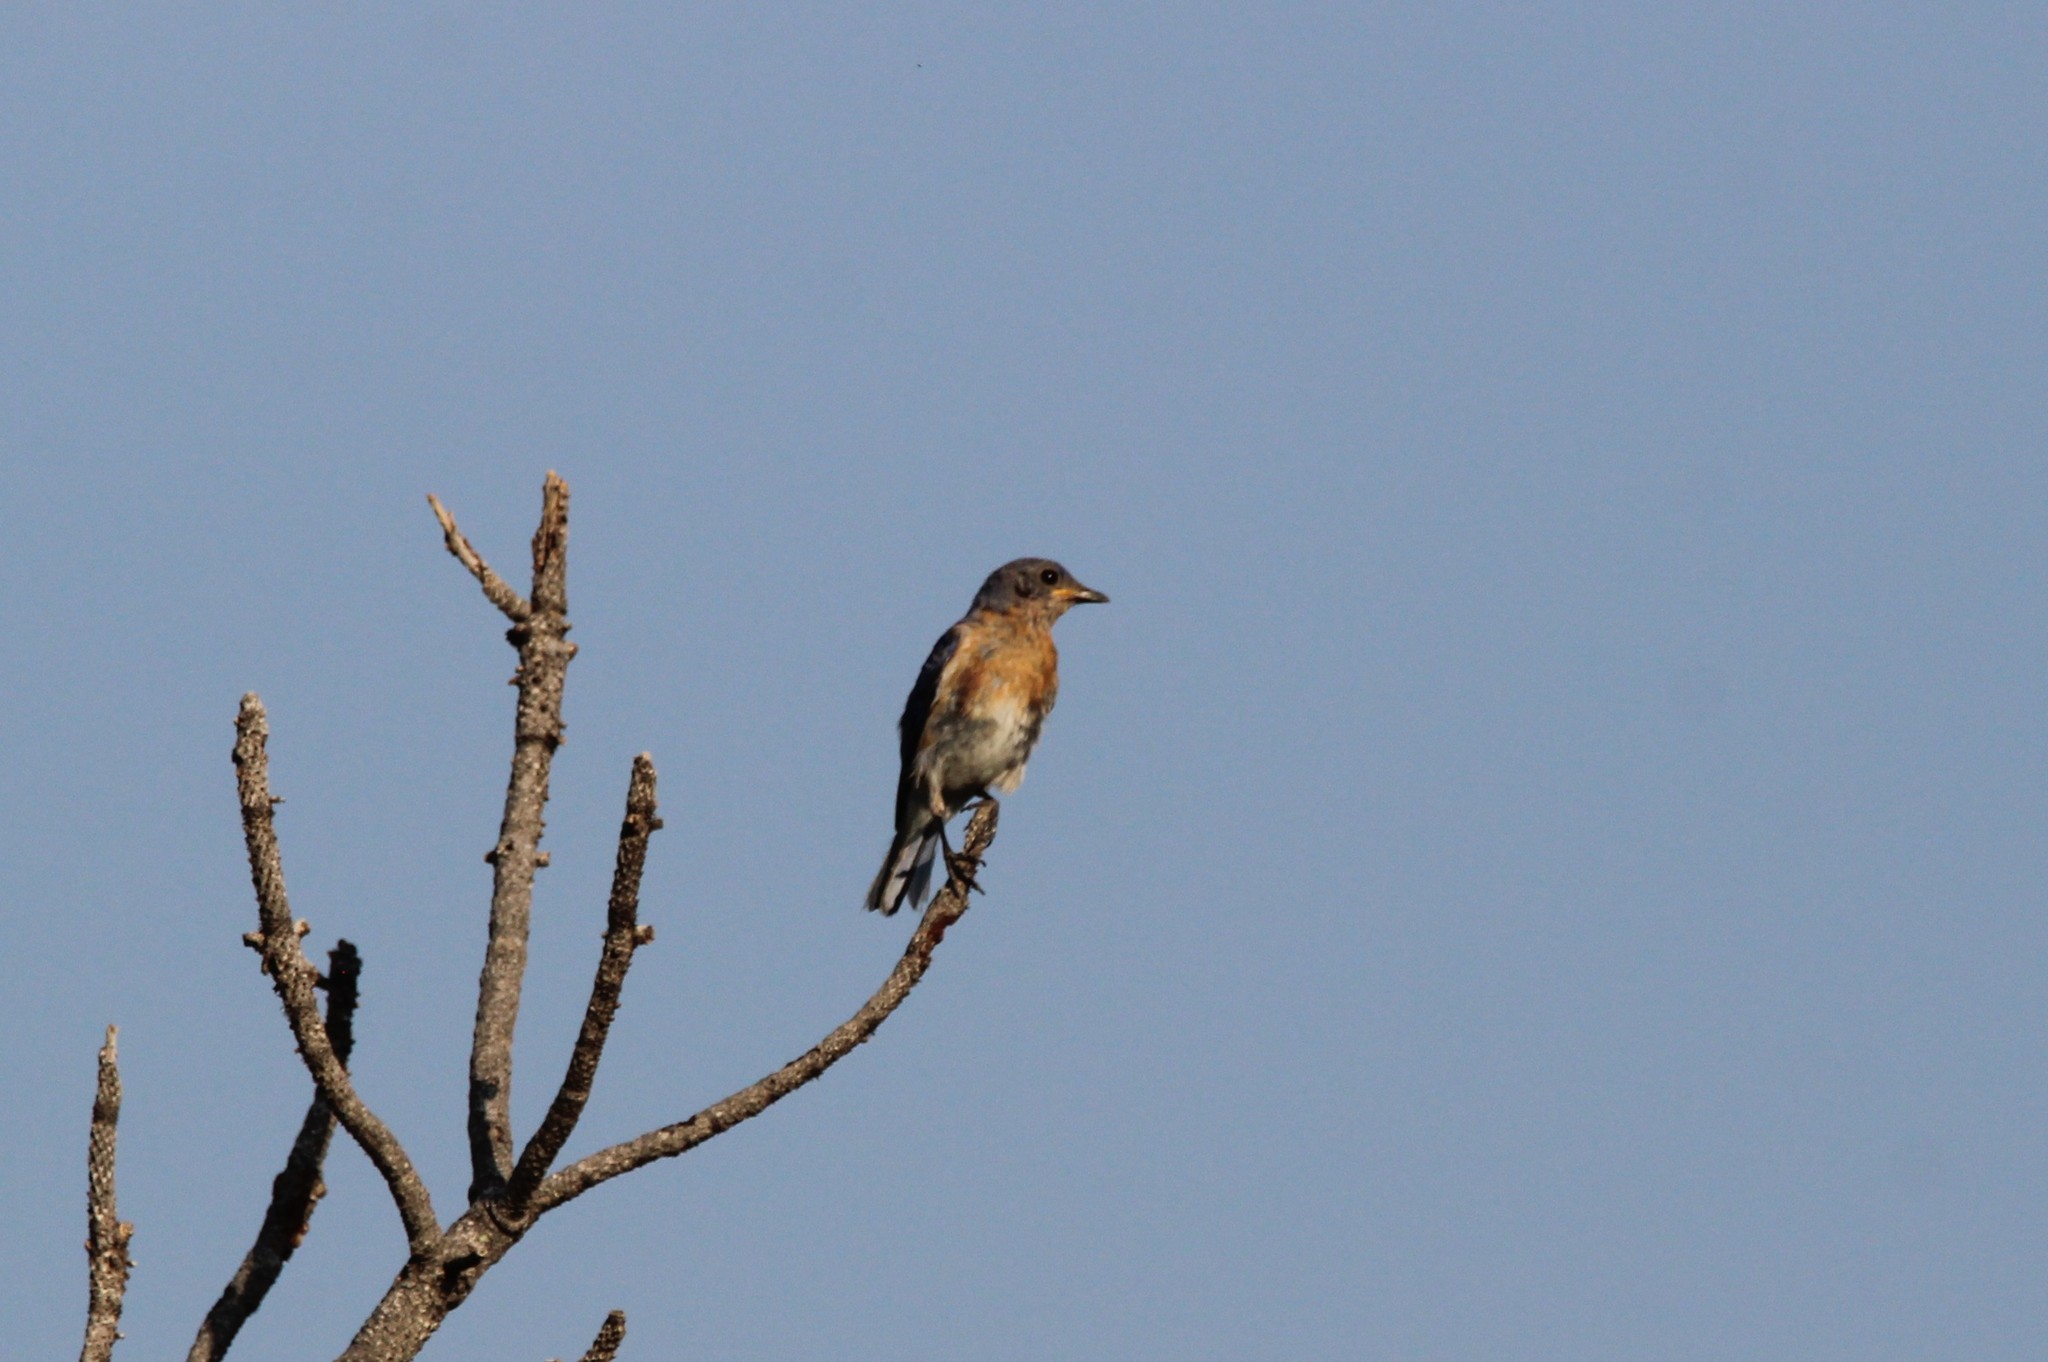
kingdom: Animalia
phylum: Chordata
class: Aves
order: Passeriformes
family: Turdidae
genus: Sialia
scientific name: Sialia sialis
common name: Eastern bluebird
